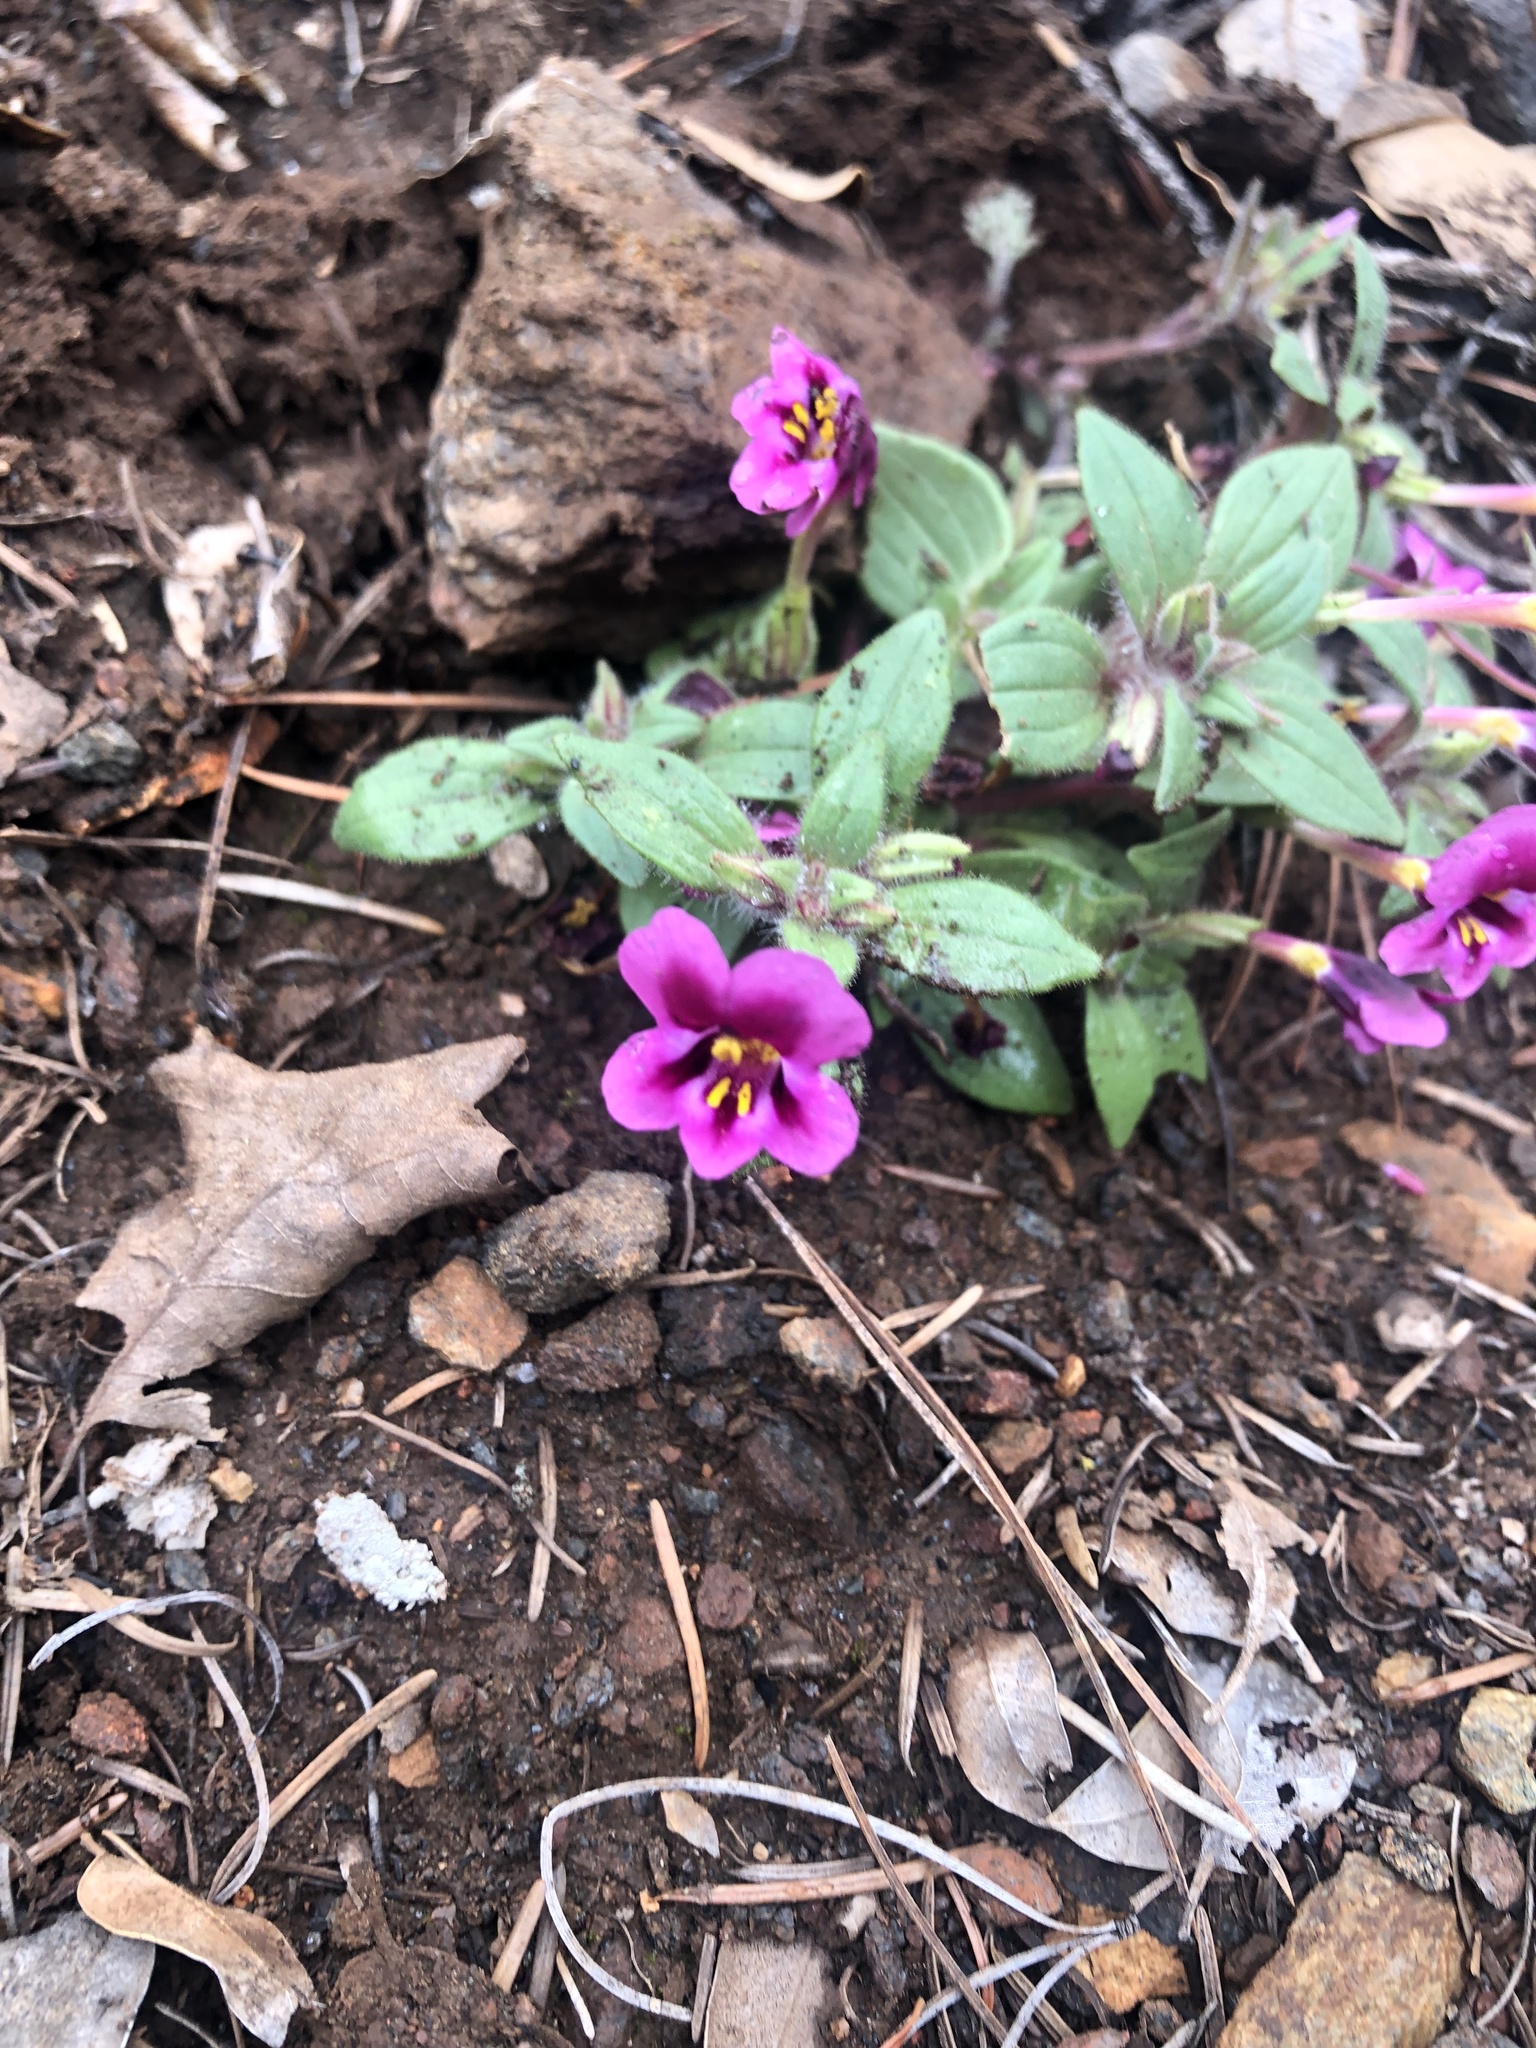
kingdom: Plantae
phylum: Tracheophyta
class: Magnoliopsida
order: Lamiales
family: Phrymaceae
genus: Diplacus
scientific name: Diplacus kelloggii
